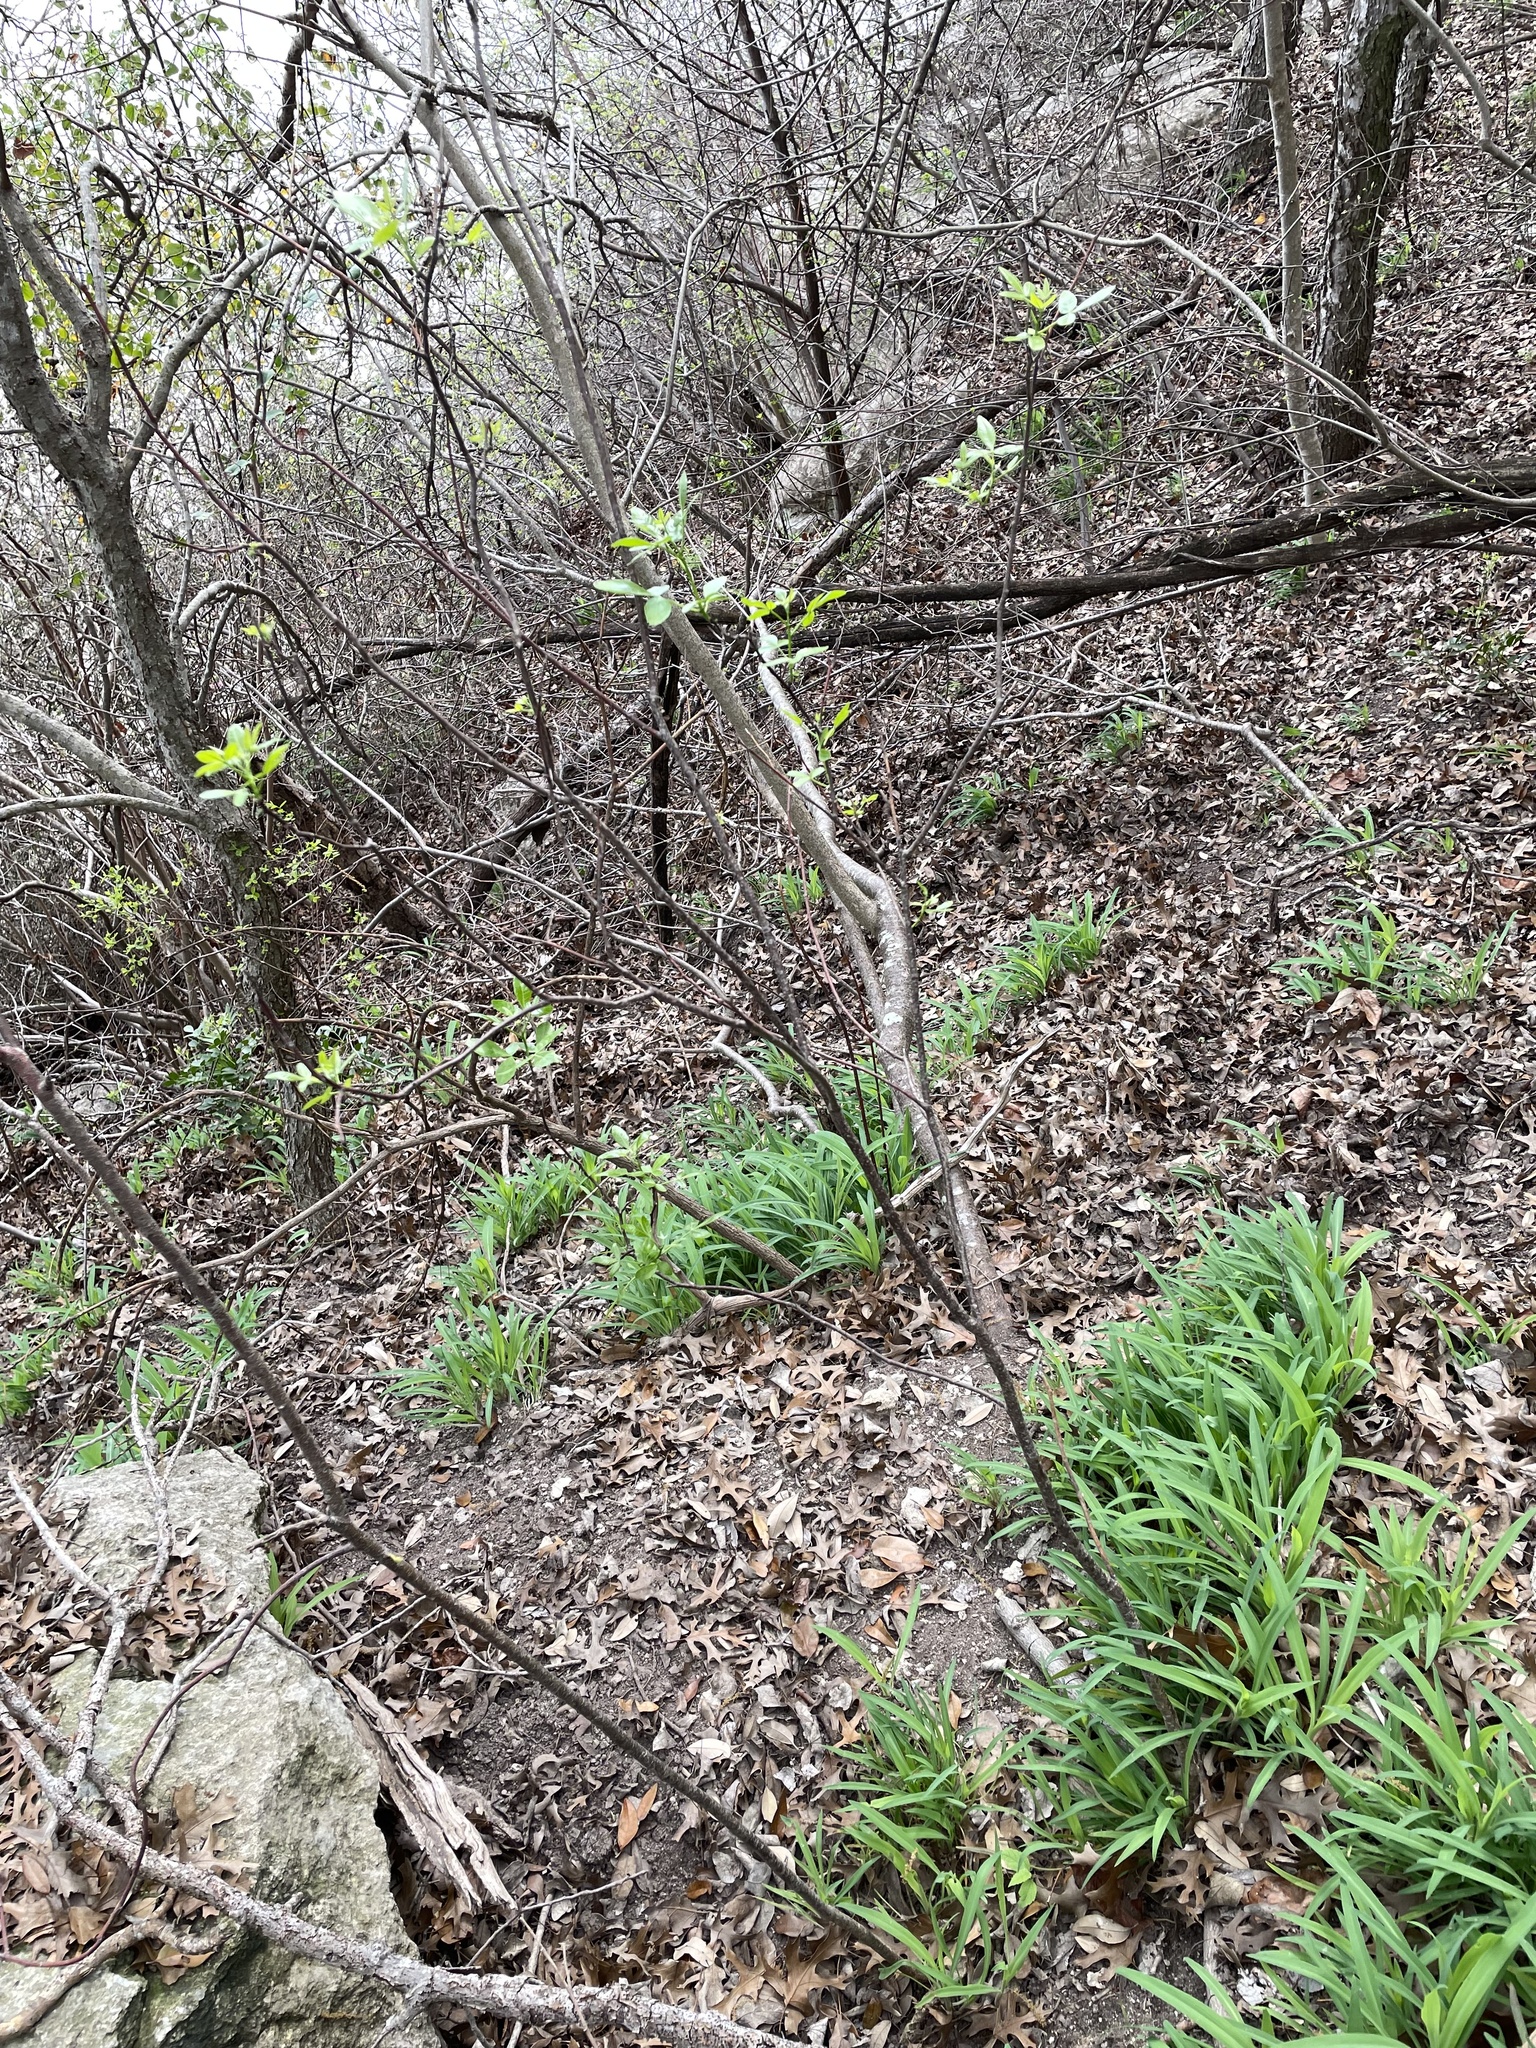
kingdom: Plantae
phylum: Tracheophyta
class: Magnoliopsida
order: Sapindales
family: Rutaceae
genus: Ptelea
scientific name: Ptelea trifoliata
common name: Common hop-tree
